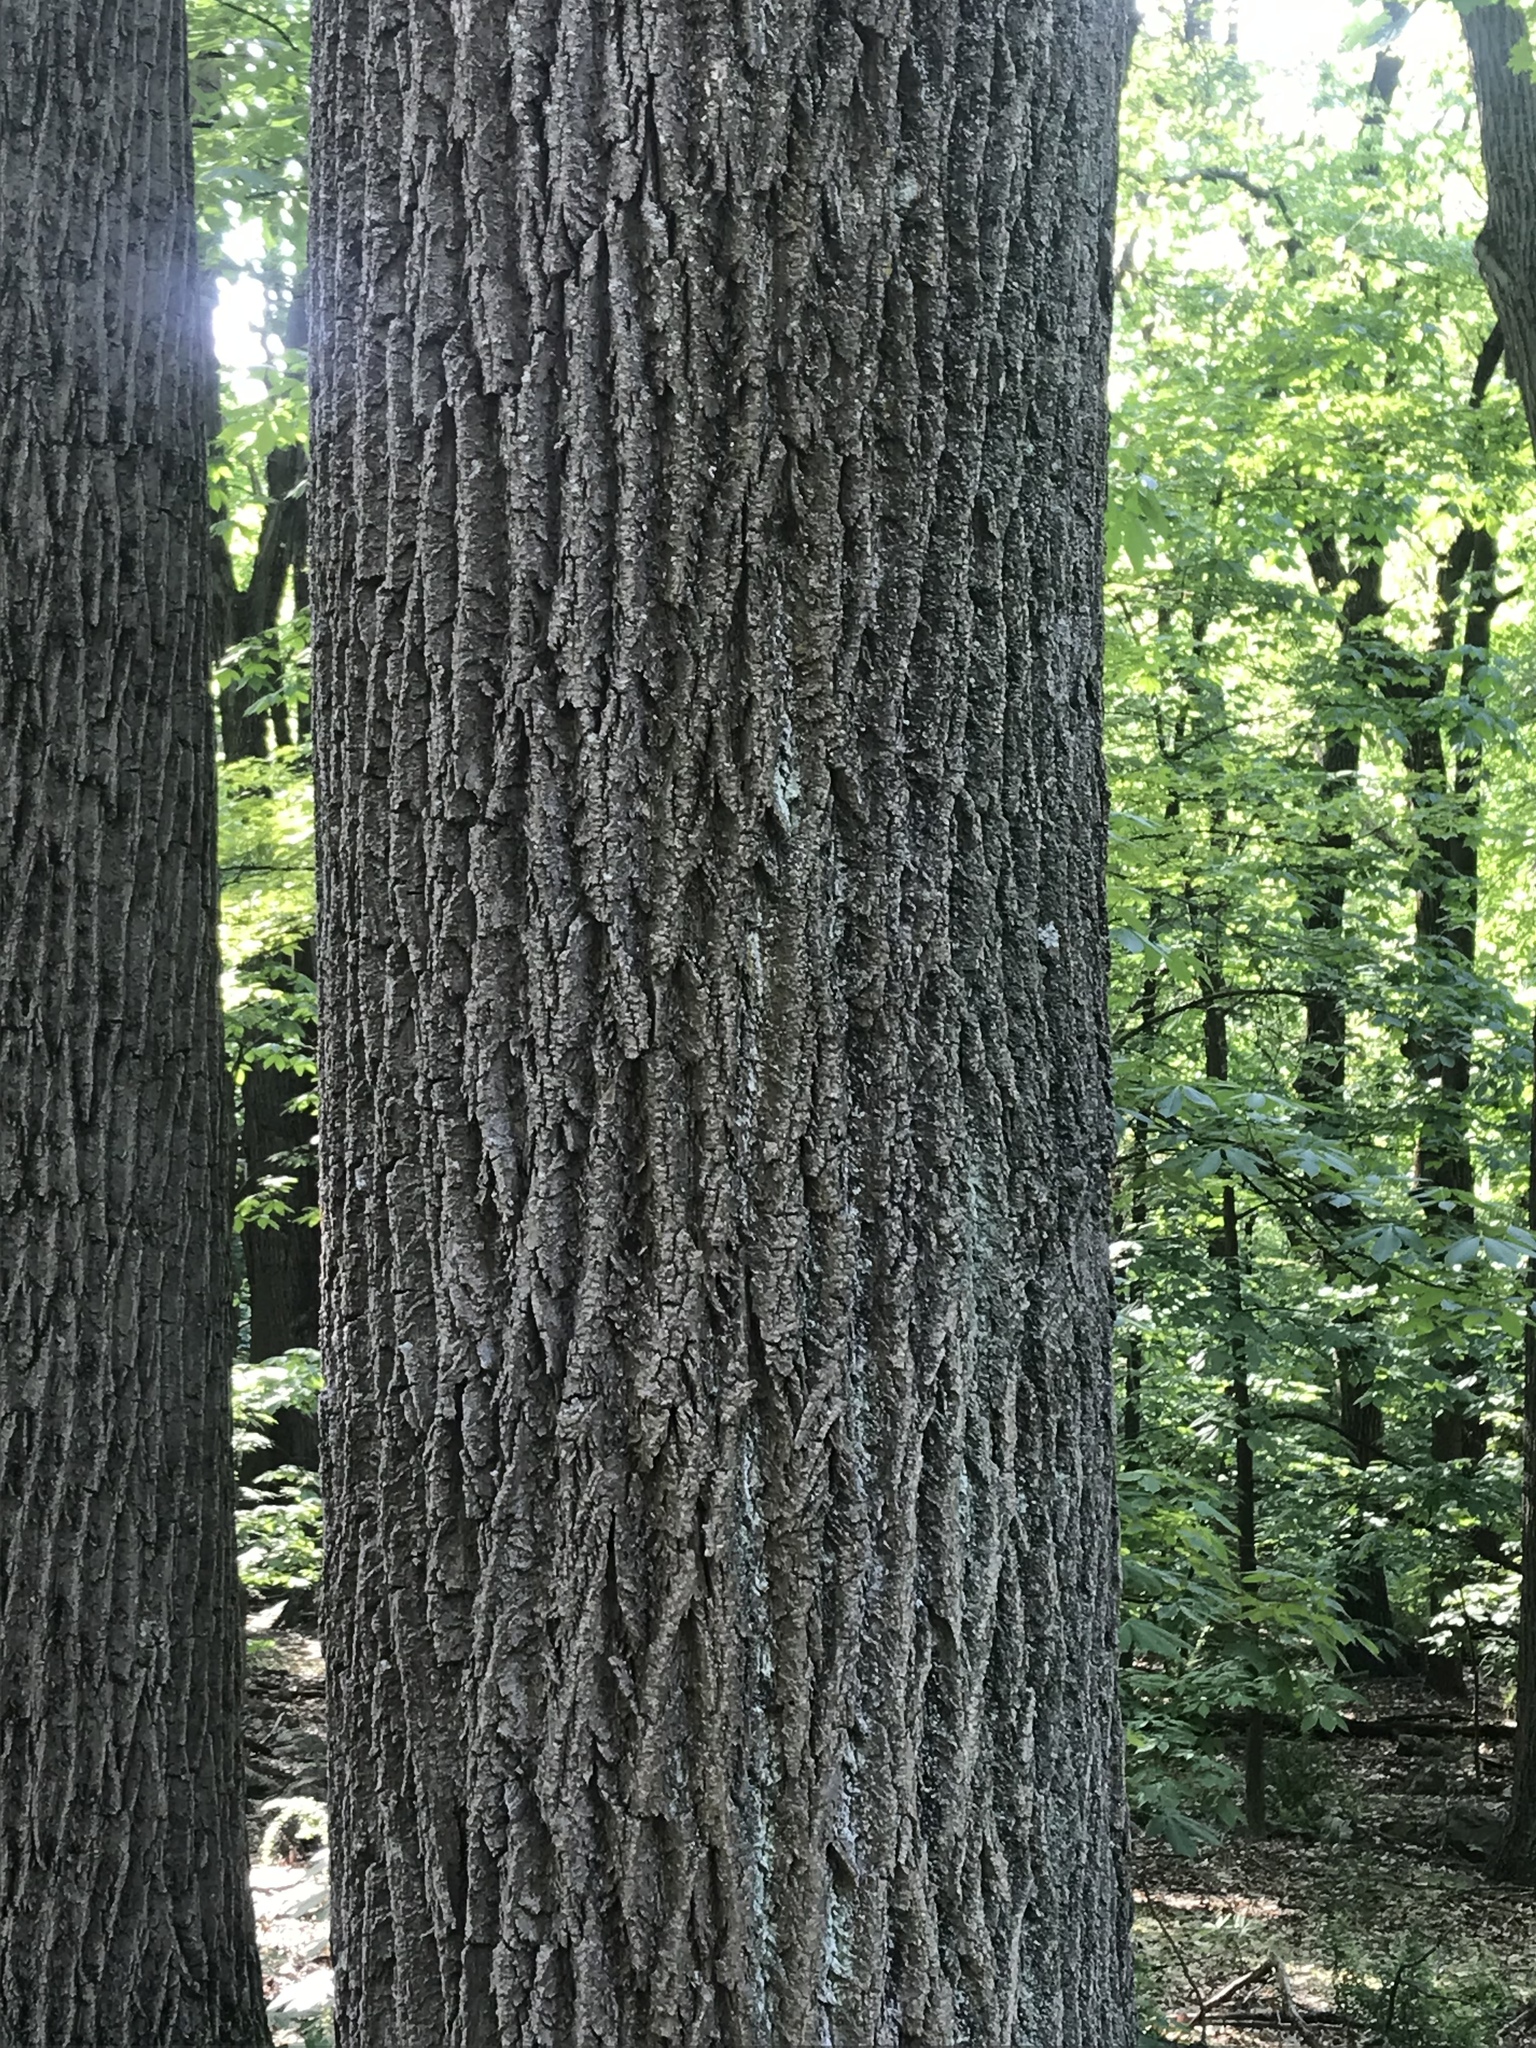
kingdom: Plantae
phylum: Tracheophyta
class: Magnoliopsida
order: Magnoliales
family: Magnoliaceae
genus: Liriodendron
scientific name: Liriodendron tulipifera
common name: Tulip tree
